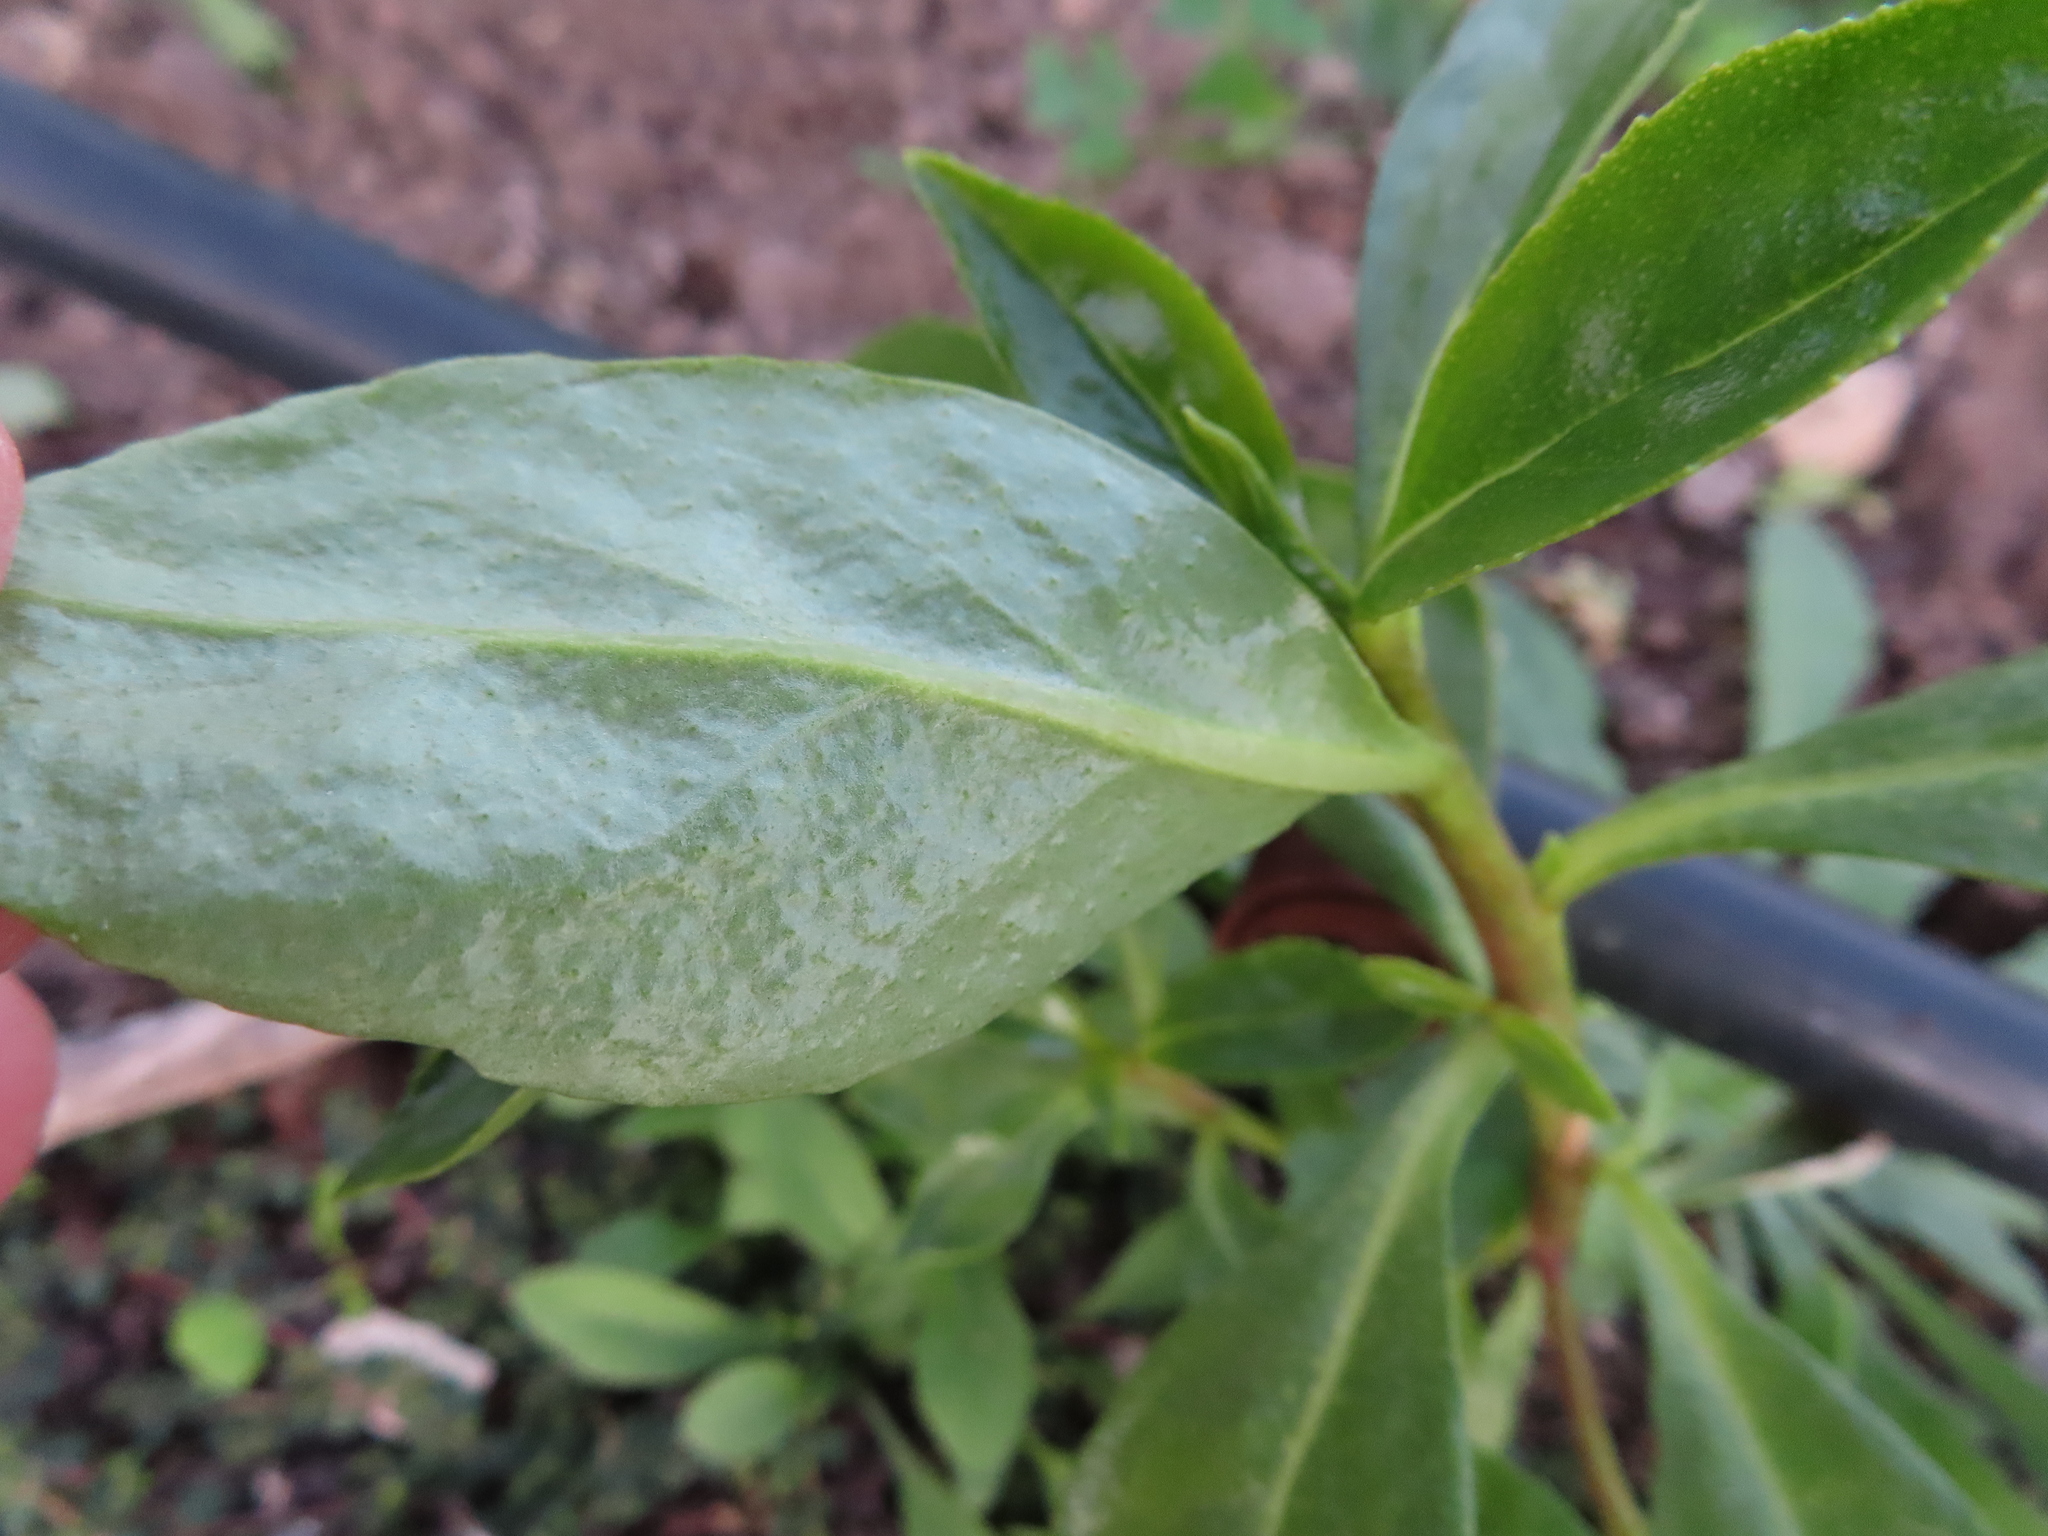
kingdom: Plantae
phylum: Tracheophyta
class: Magnoliopsida
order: Lamiales
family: Scrophulariaceae
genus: Myoporum
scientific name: Myoporum laetum
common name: Ngaio tree
